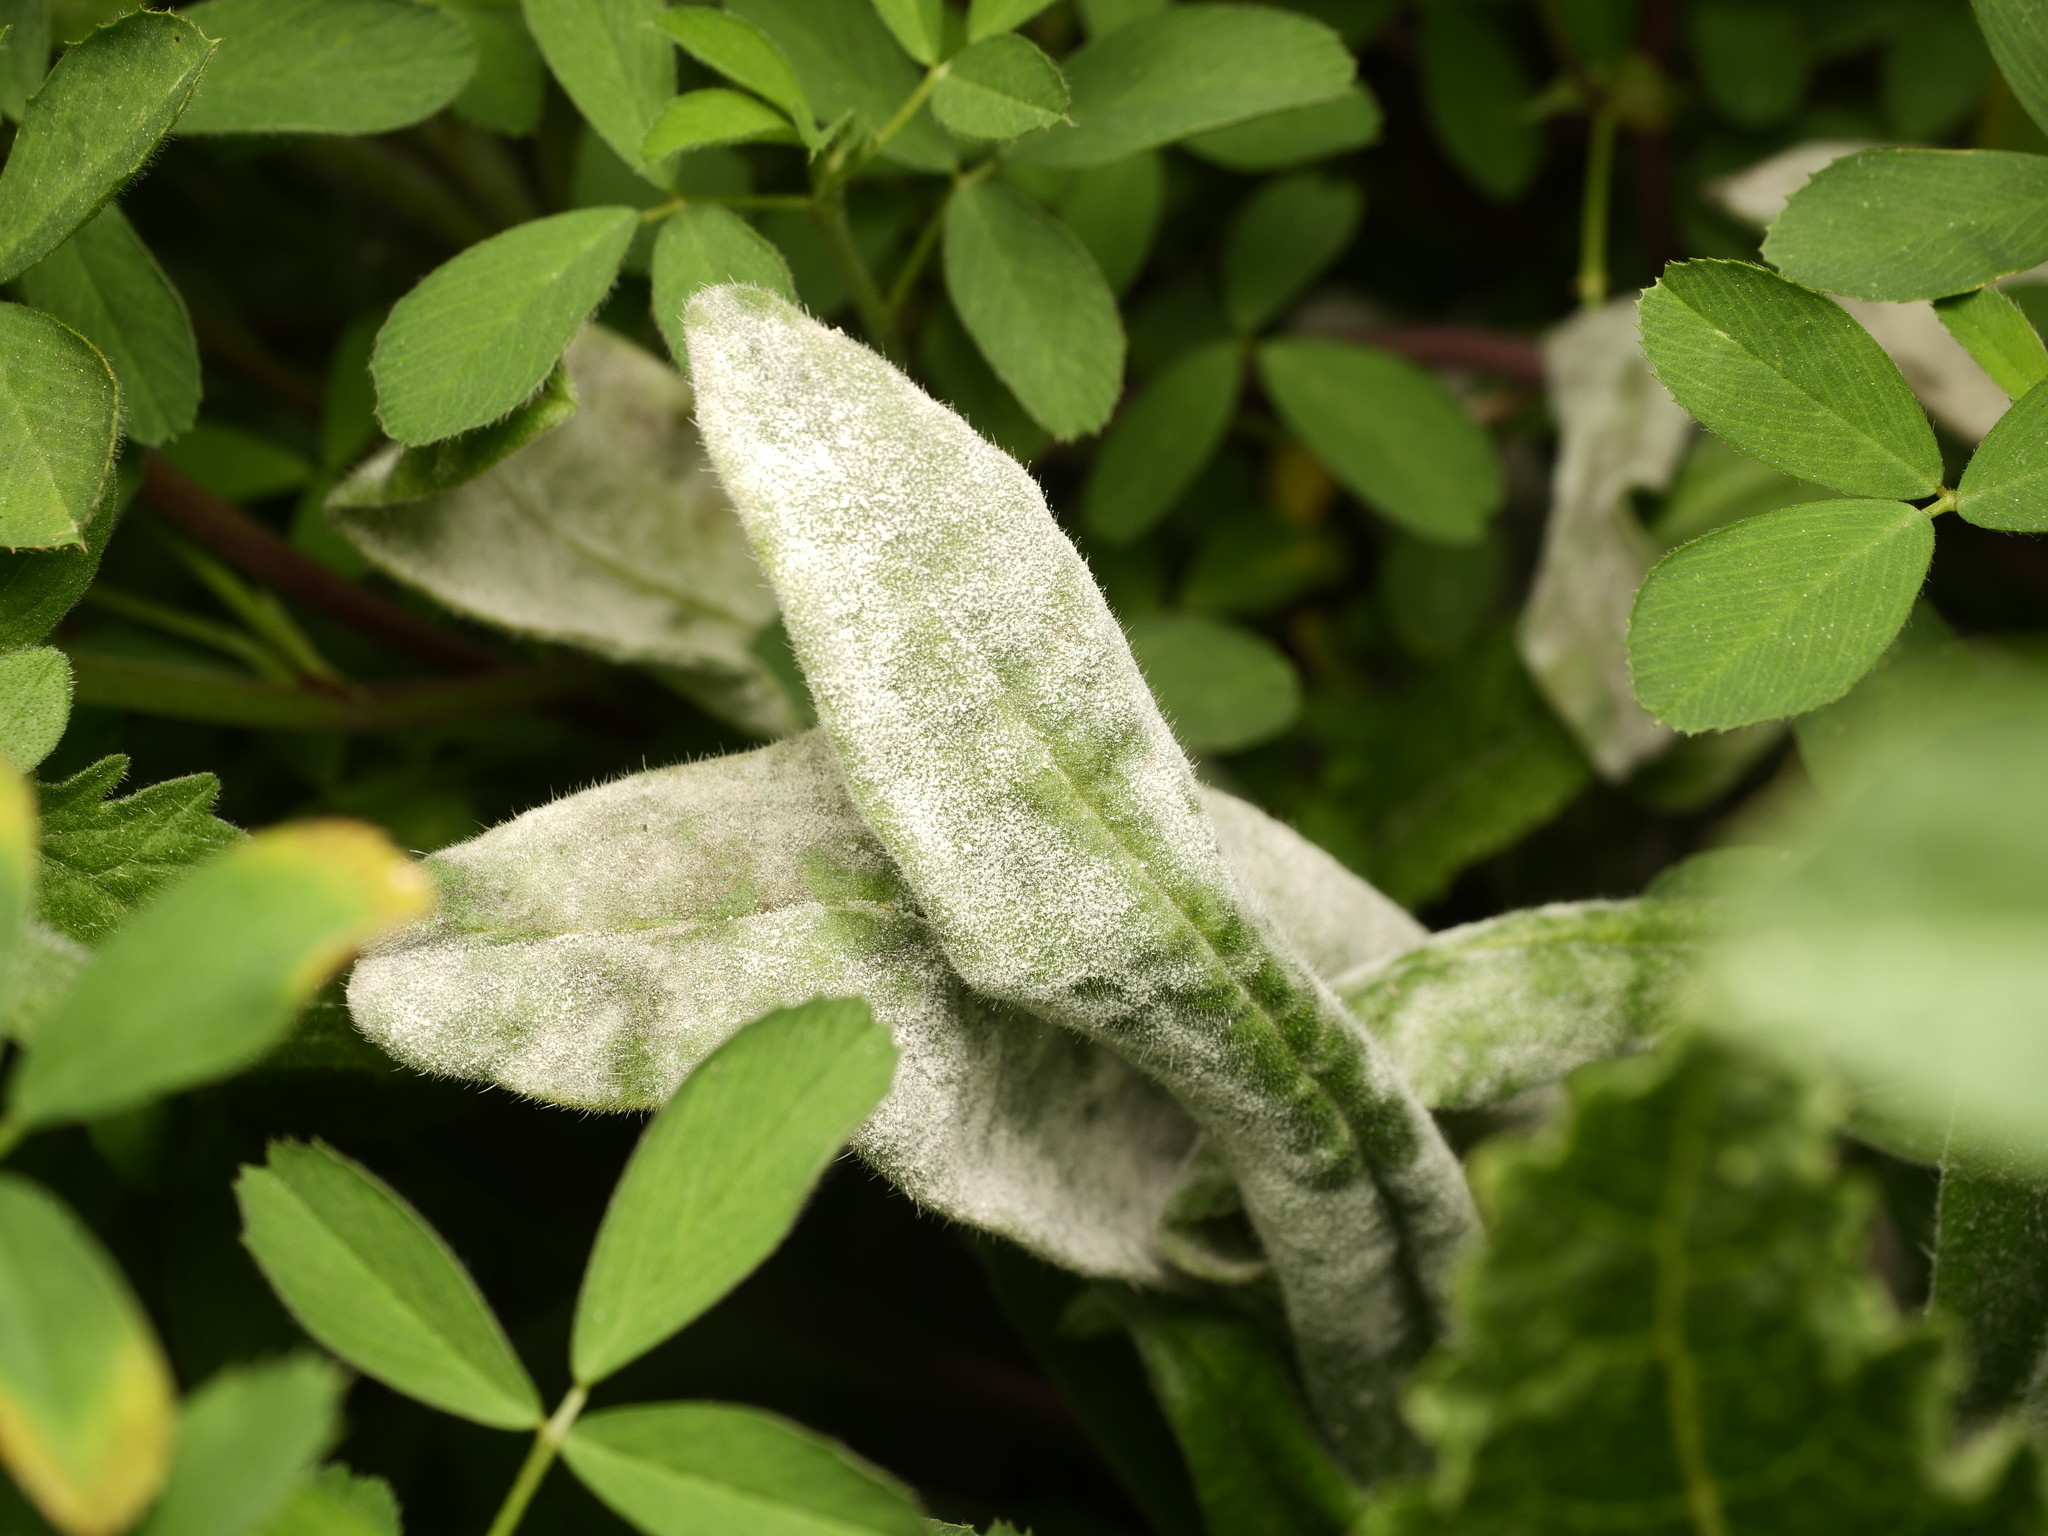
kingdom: Fungi
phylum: Ascomycota
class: Leotiomycetes
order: Helotiales
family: Erysiphaceae
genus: Golovinomyces
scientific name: Golovinomyces asperifolii
